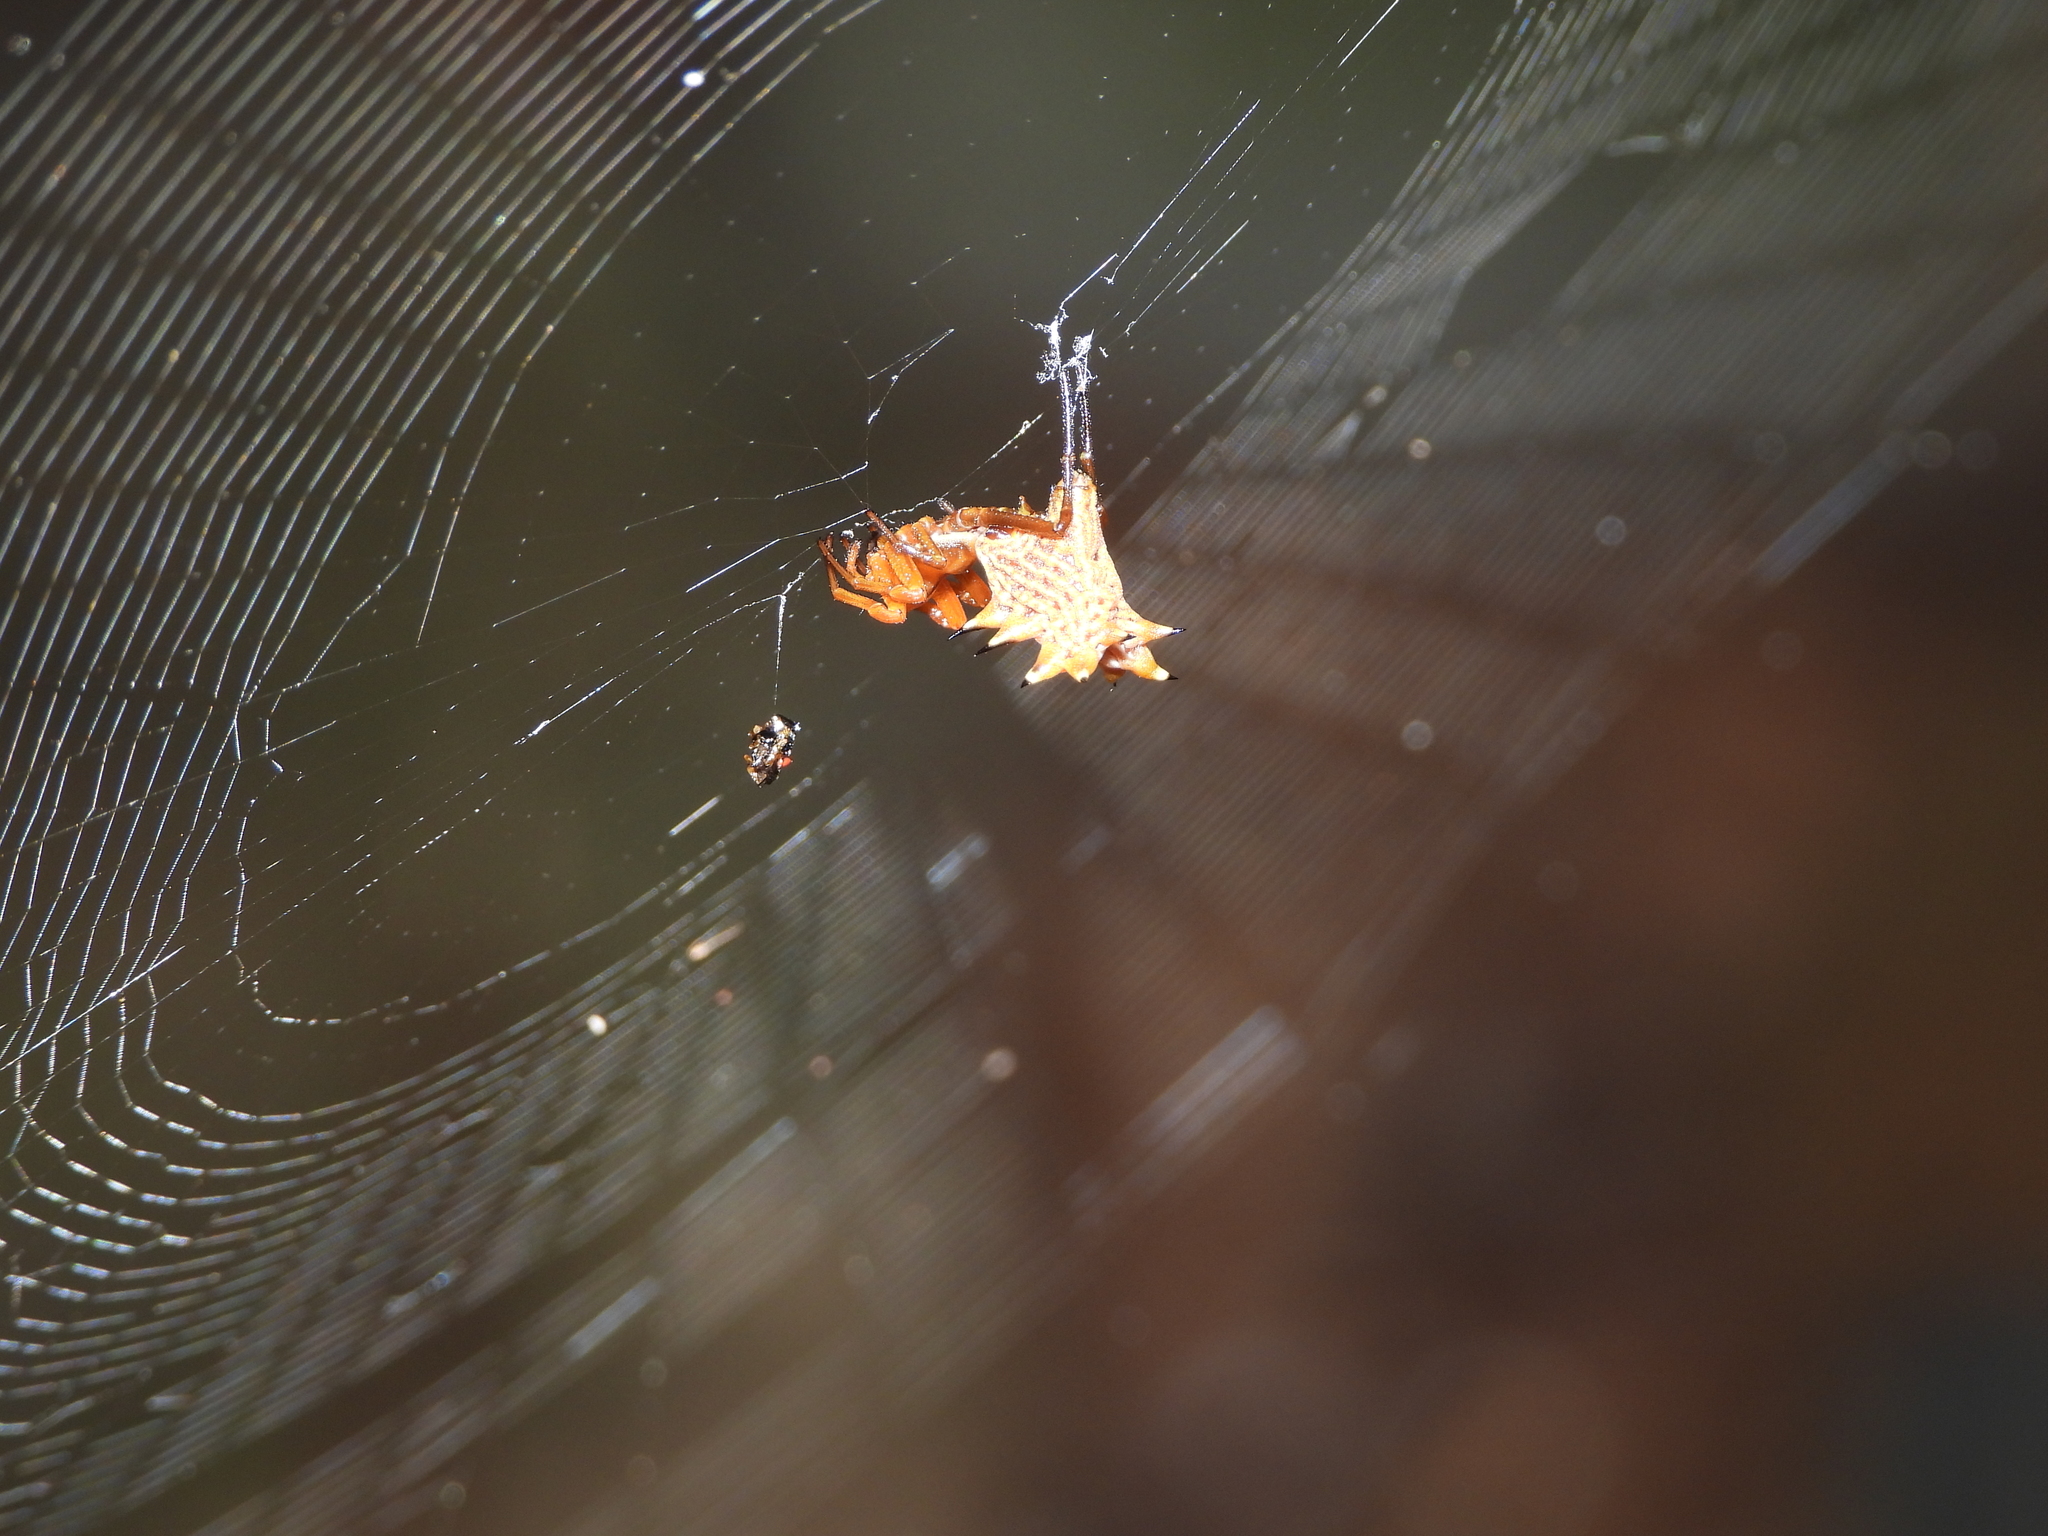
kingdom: Animalia
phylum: Arthropoda
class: Arachnida
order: Araneae
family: Araneidae
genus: Micrathena
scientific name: Micrathena gracilis
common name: Orb weavers
